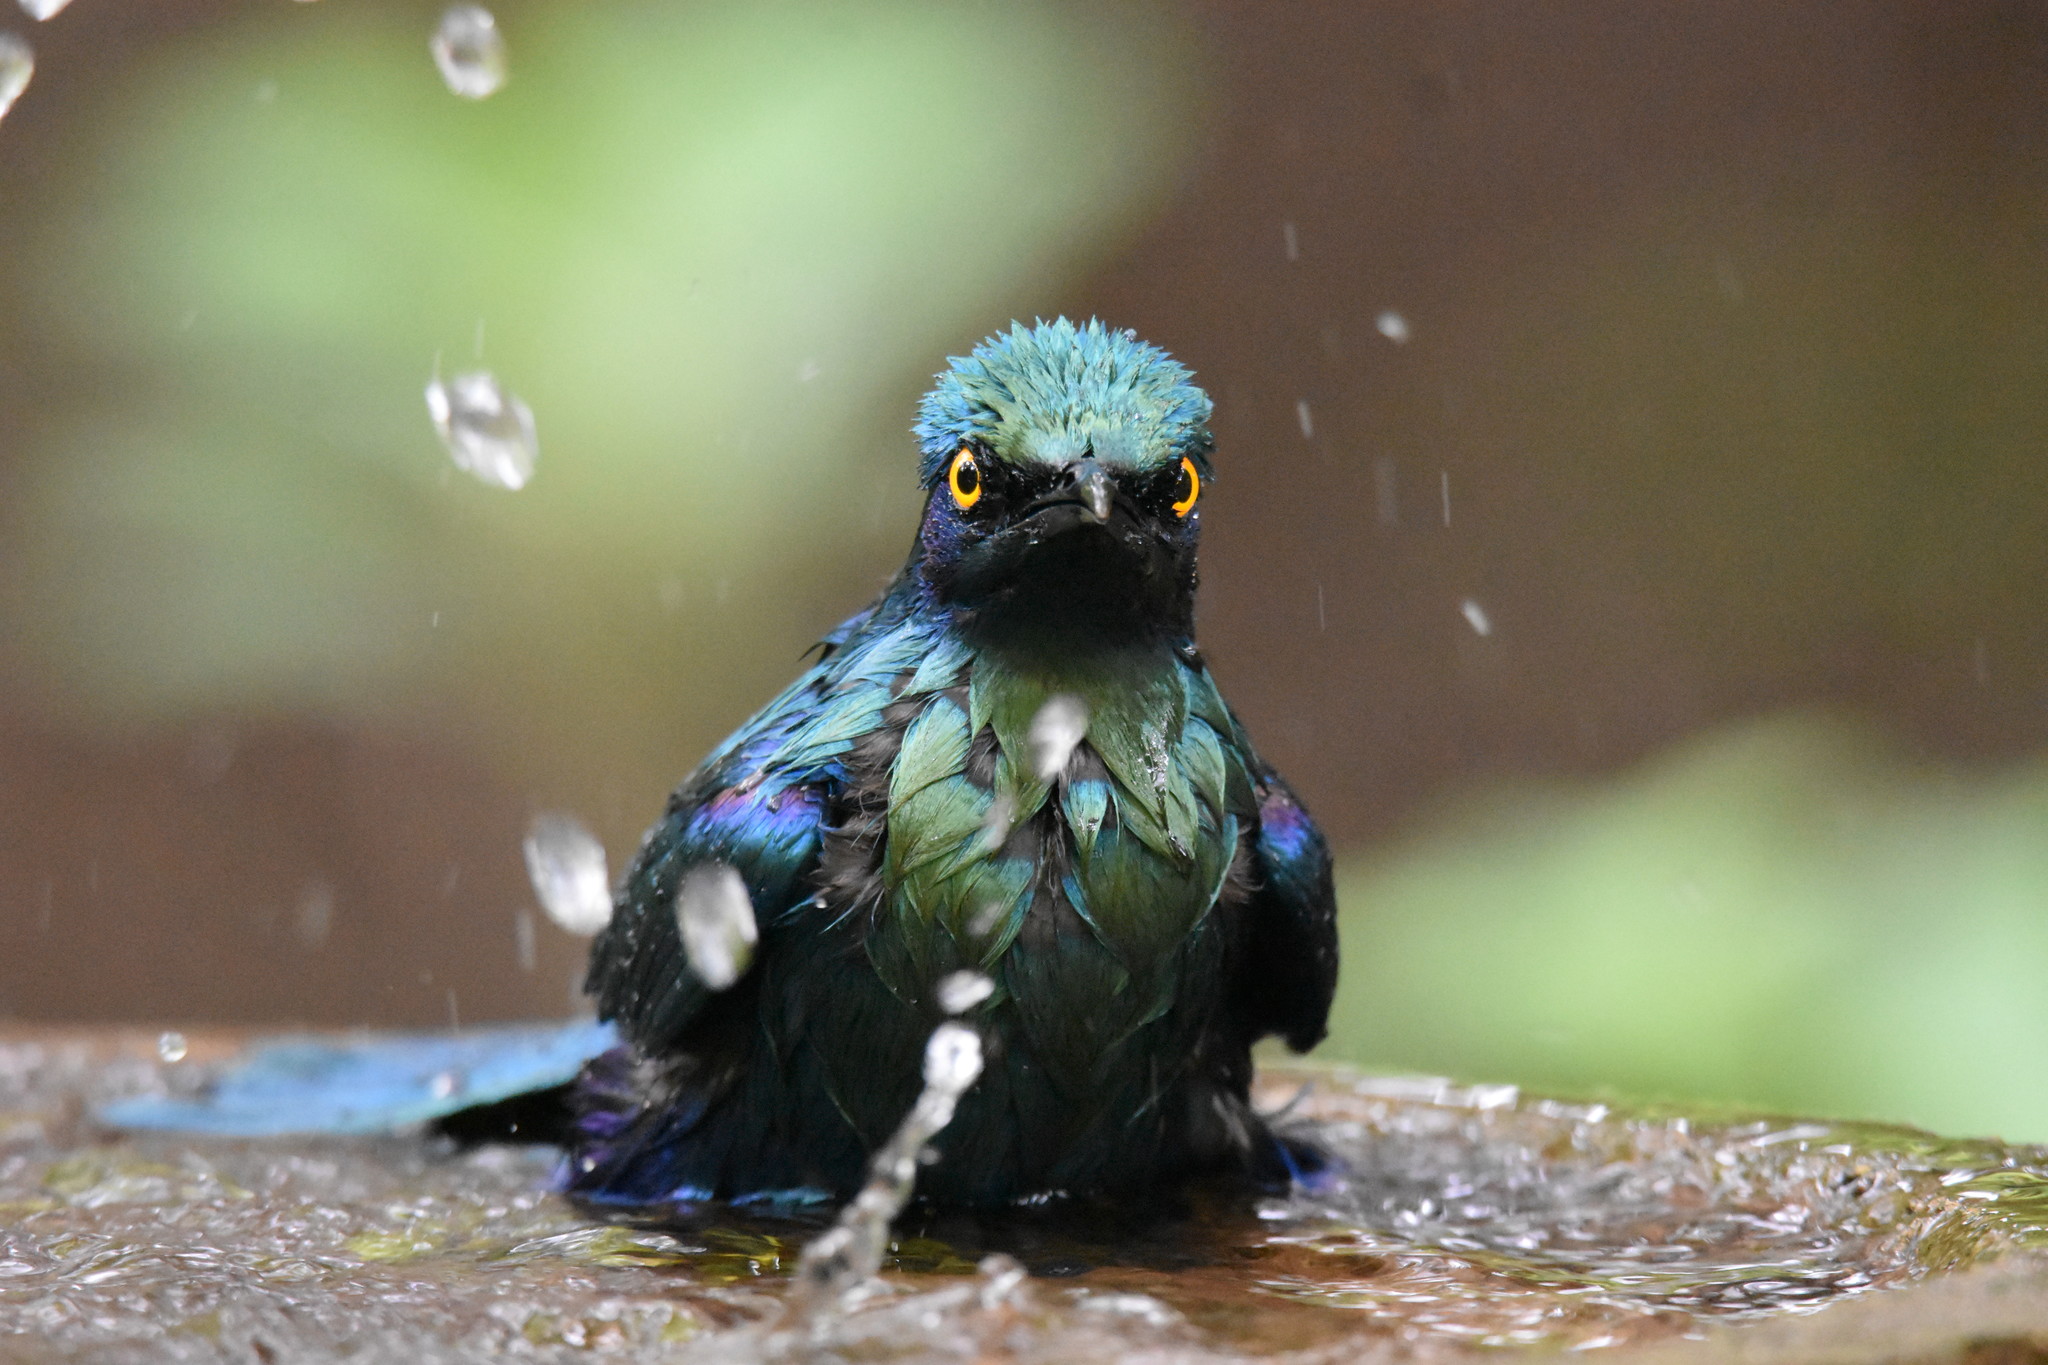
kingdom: Animalia
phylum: Chordata
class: Aves
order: Passeriformes
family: Sturnidae
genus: Lamprotornis
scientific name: Lamprotornis chalybaeus
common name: Greater blue-eared starling
